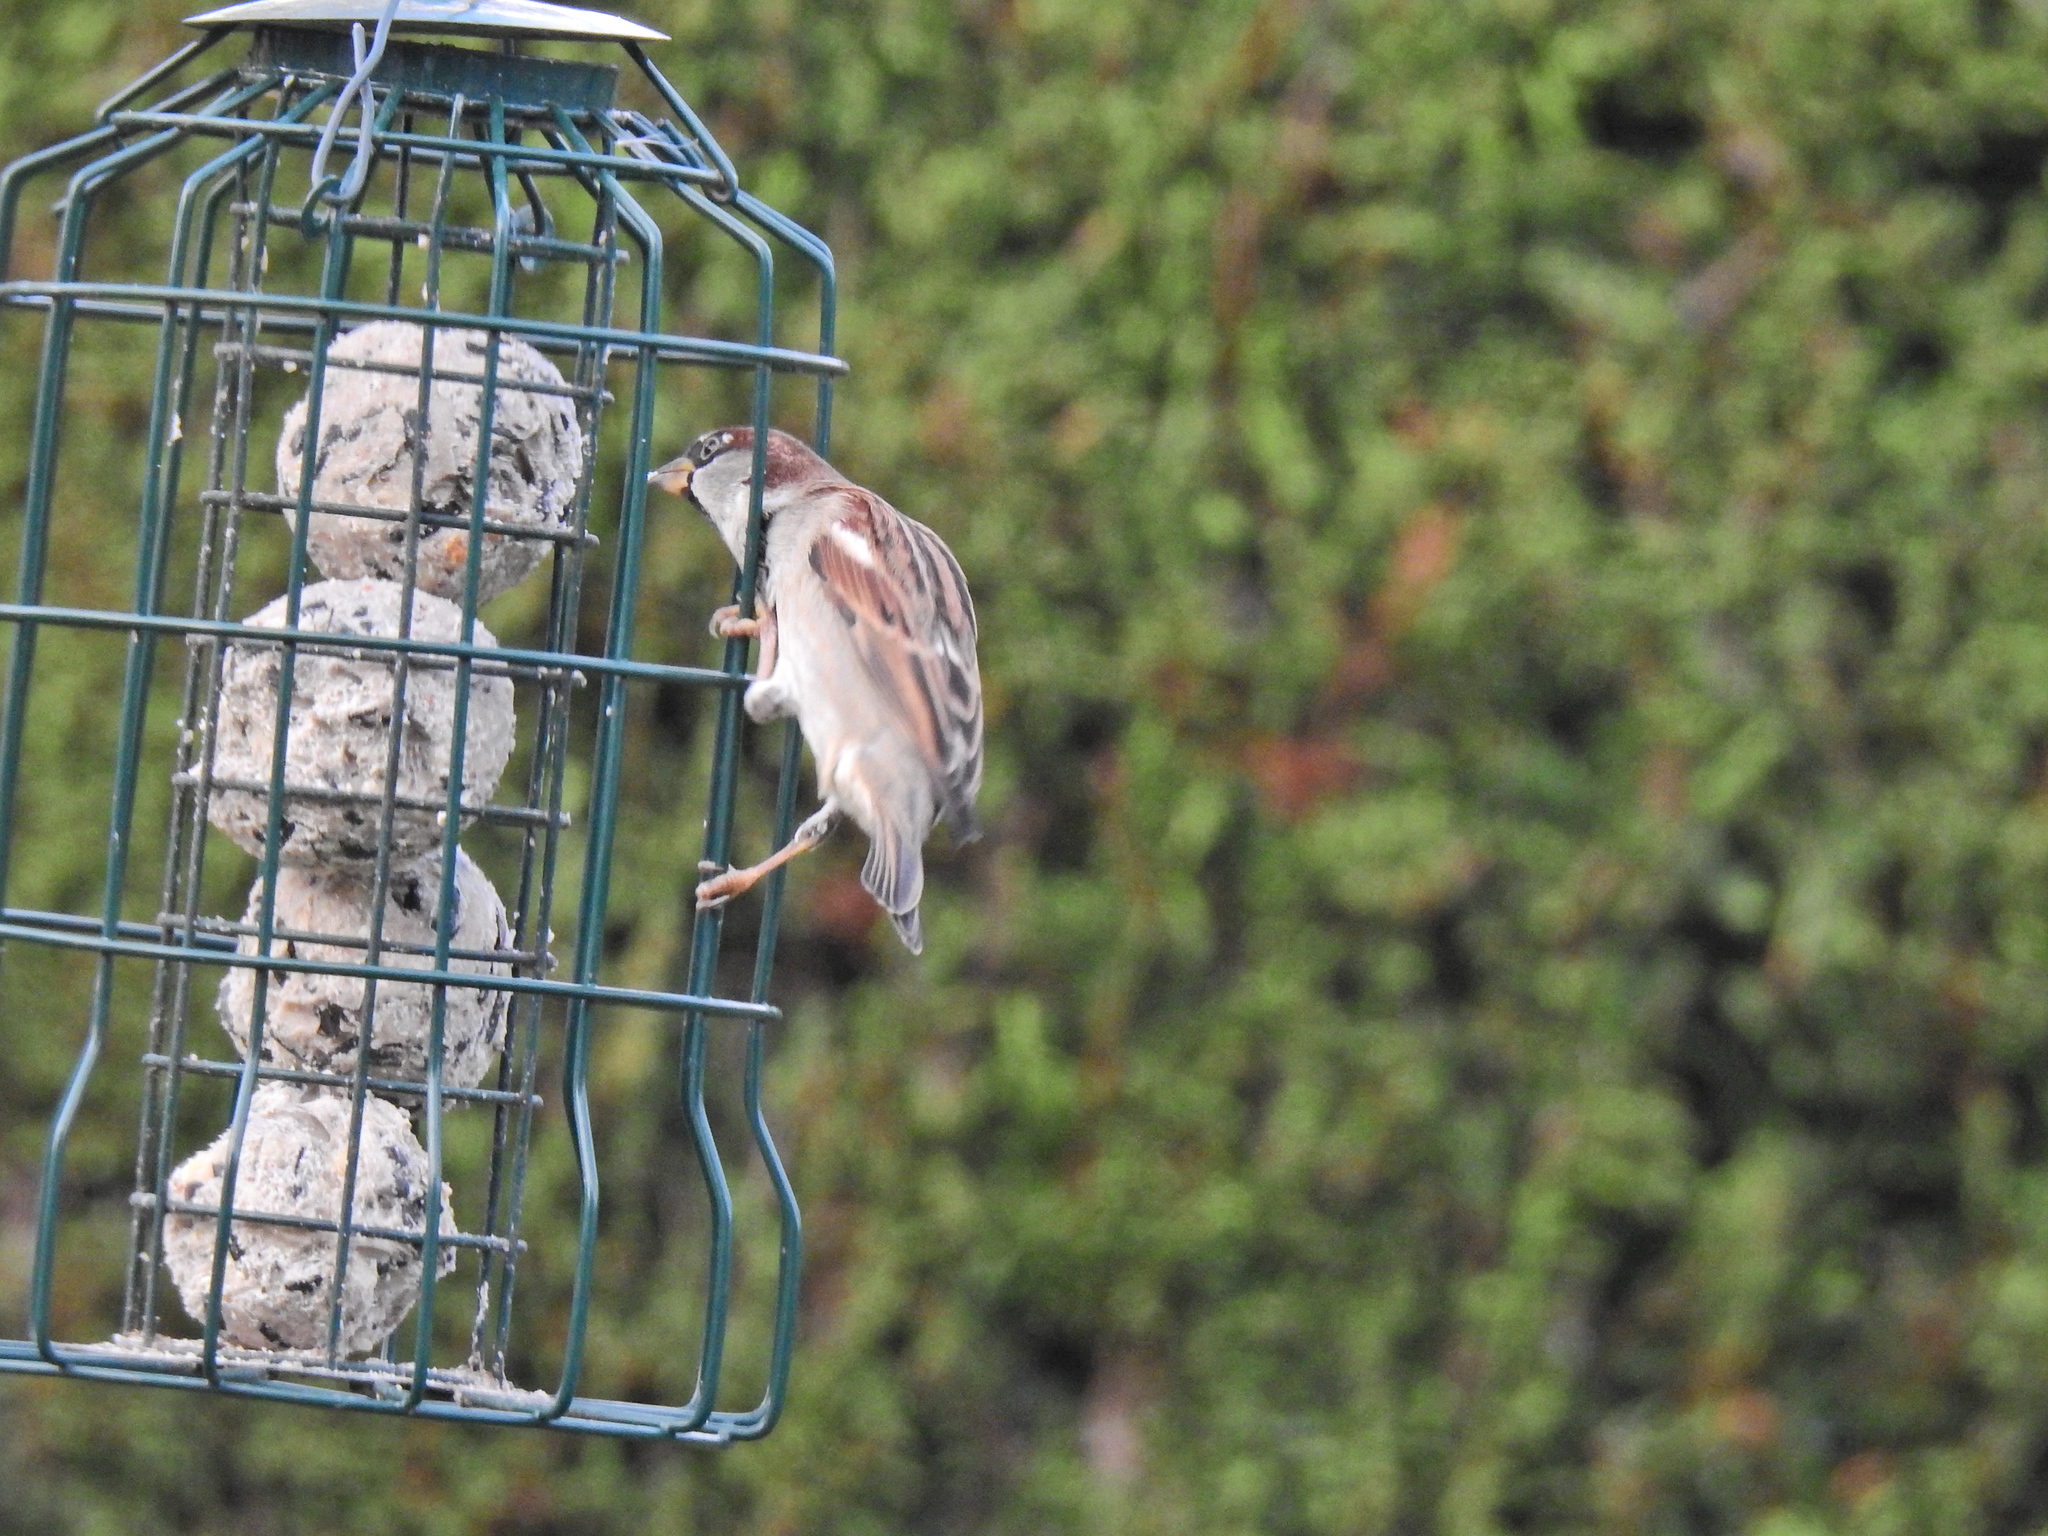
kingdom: Animalia
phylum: Chordata
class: Aves
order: Passeriformes
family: Passeridae
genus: Passer
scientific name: Passer domesticus
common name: House sparrow
